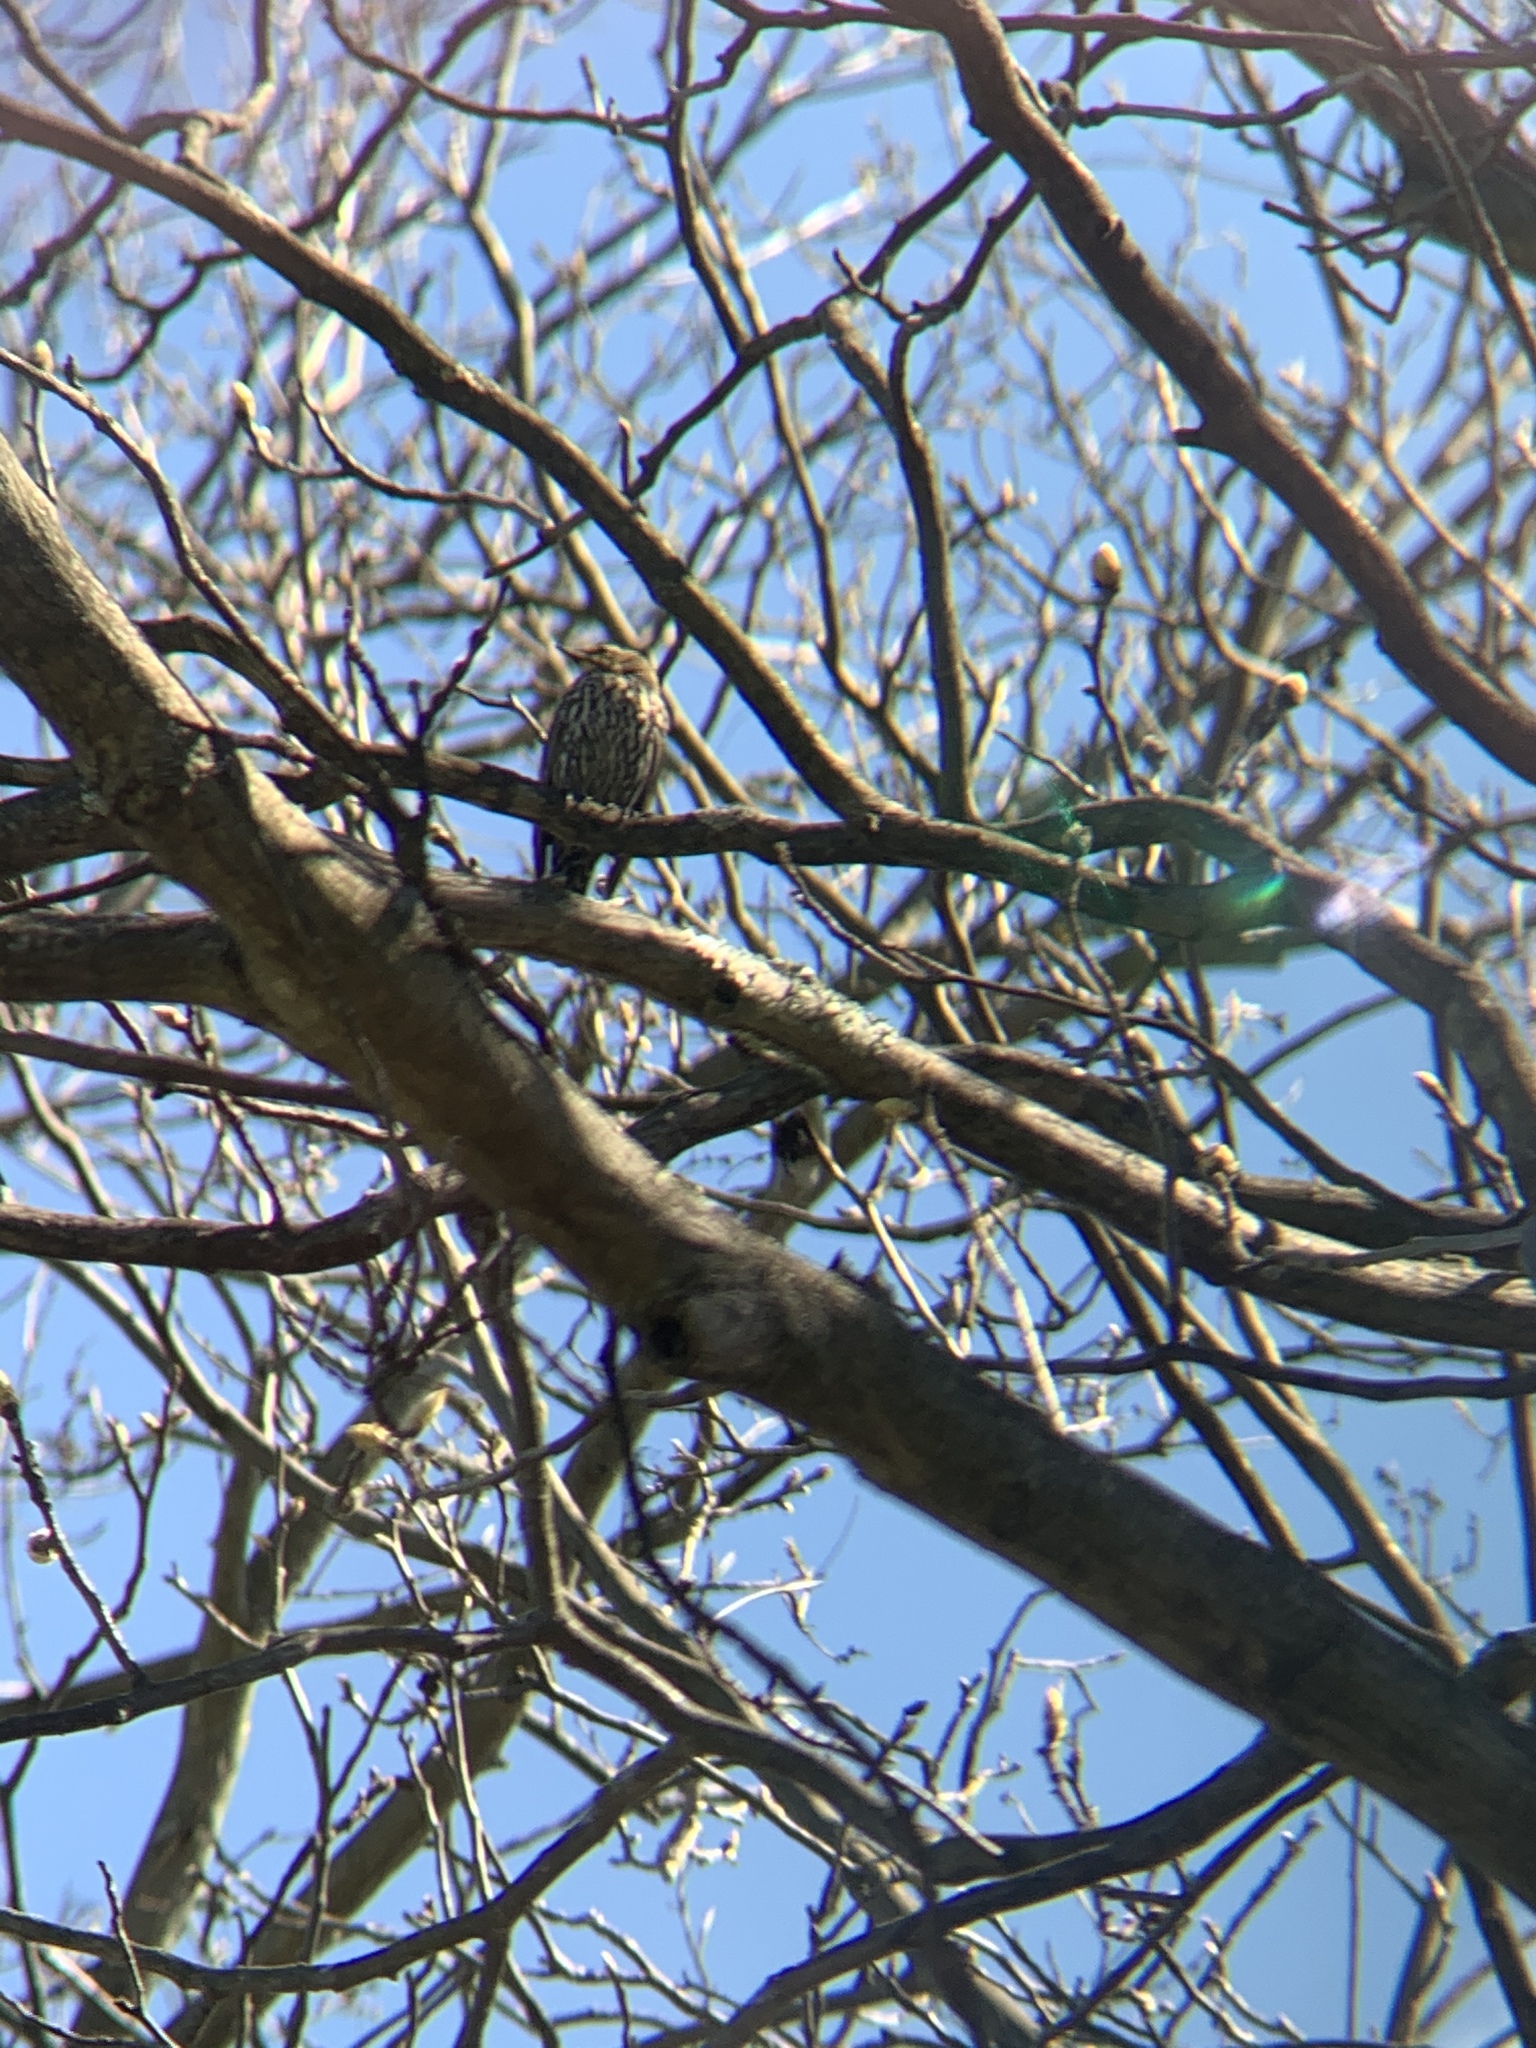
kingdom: Animalia
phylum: Chordata
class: Aves
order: Passeriformes
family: Icteridae
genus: Agelaius
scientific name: Agelaius phoeniceus
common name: Red-winged blackbird
